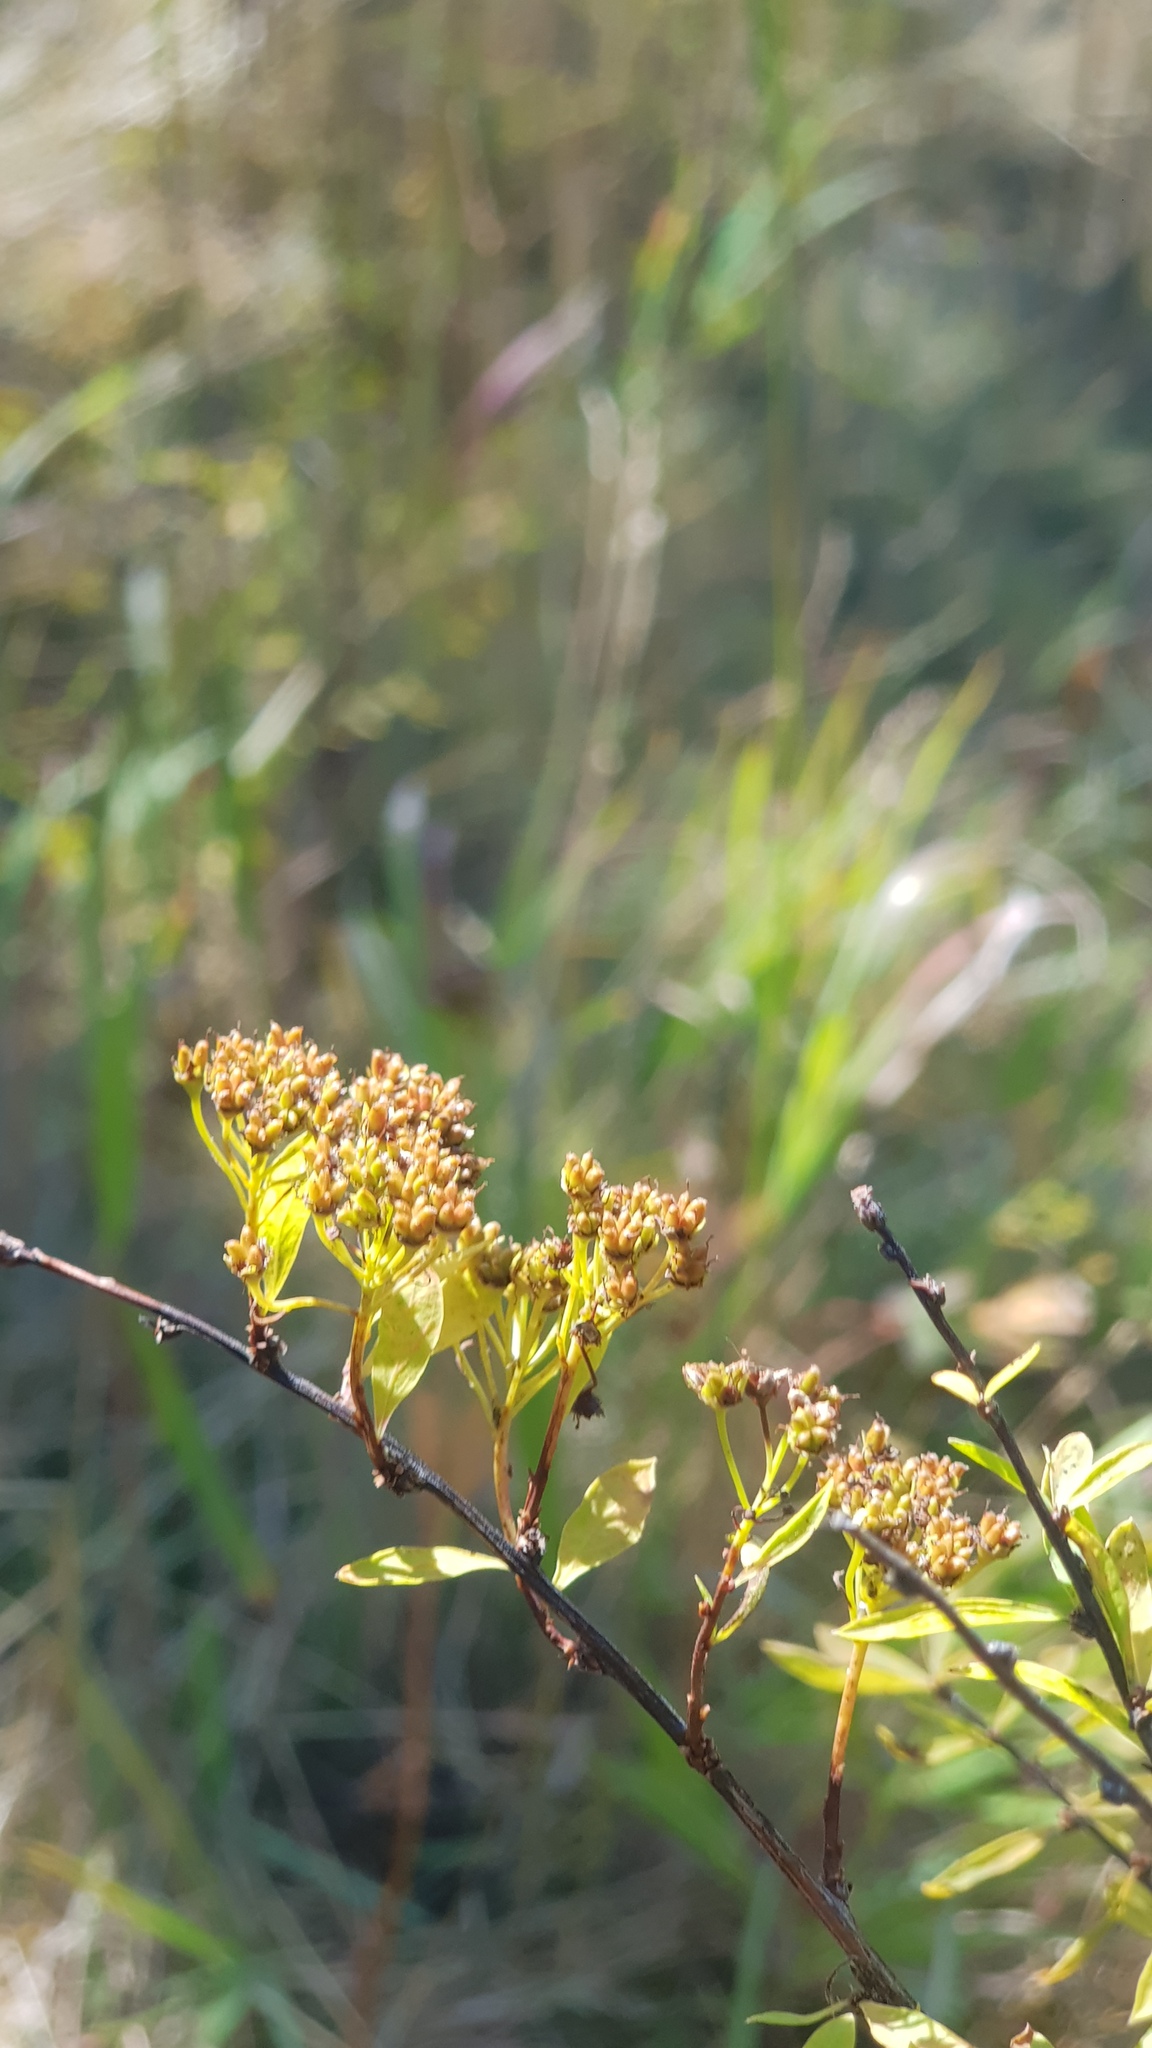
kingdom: Plantae
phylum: Tracheophyta
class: Magnoliopsida
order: Rosales
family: Rosaceae
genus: Spiraea
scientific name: Spiraea alpina
